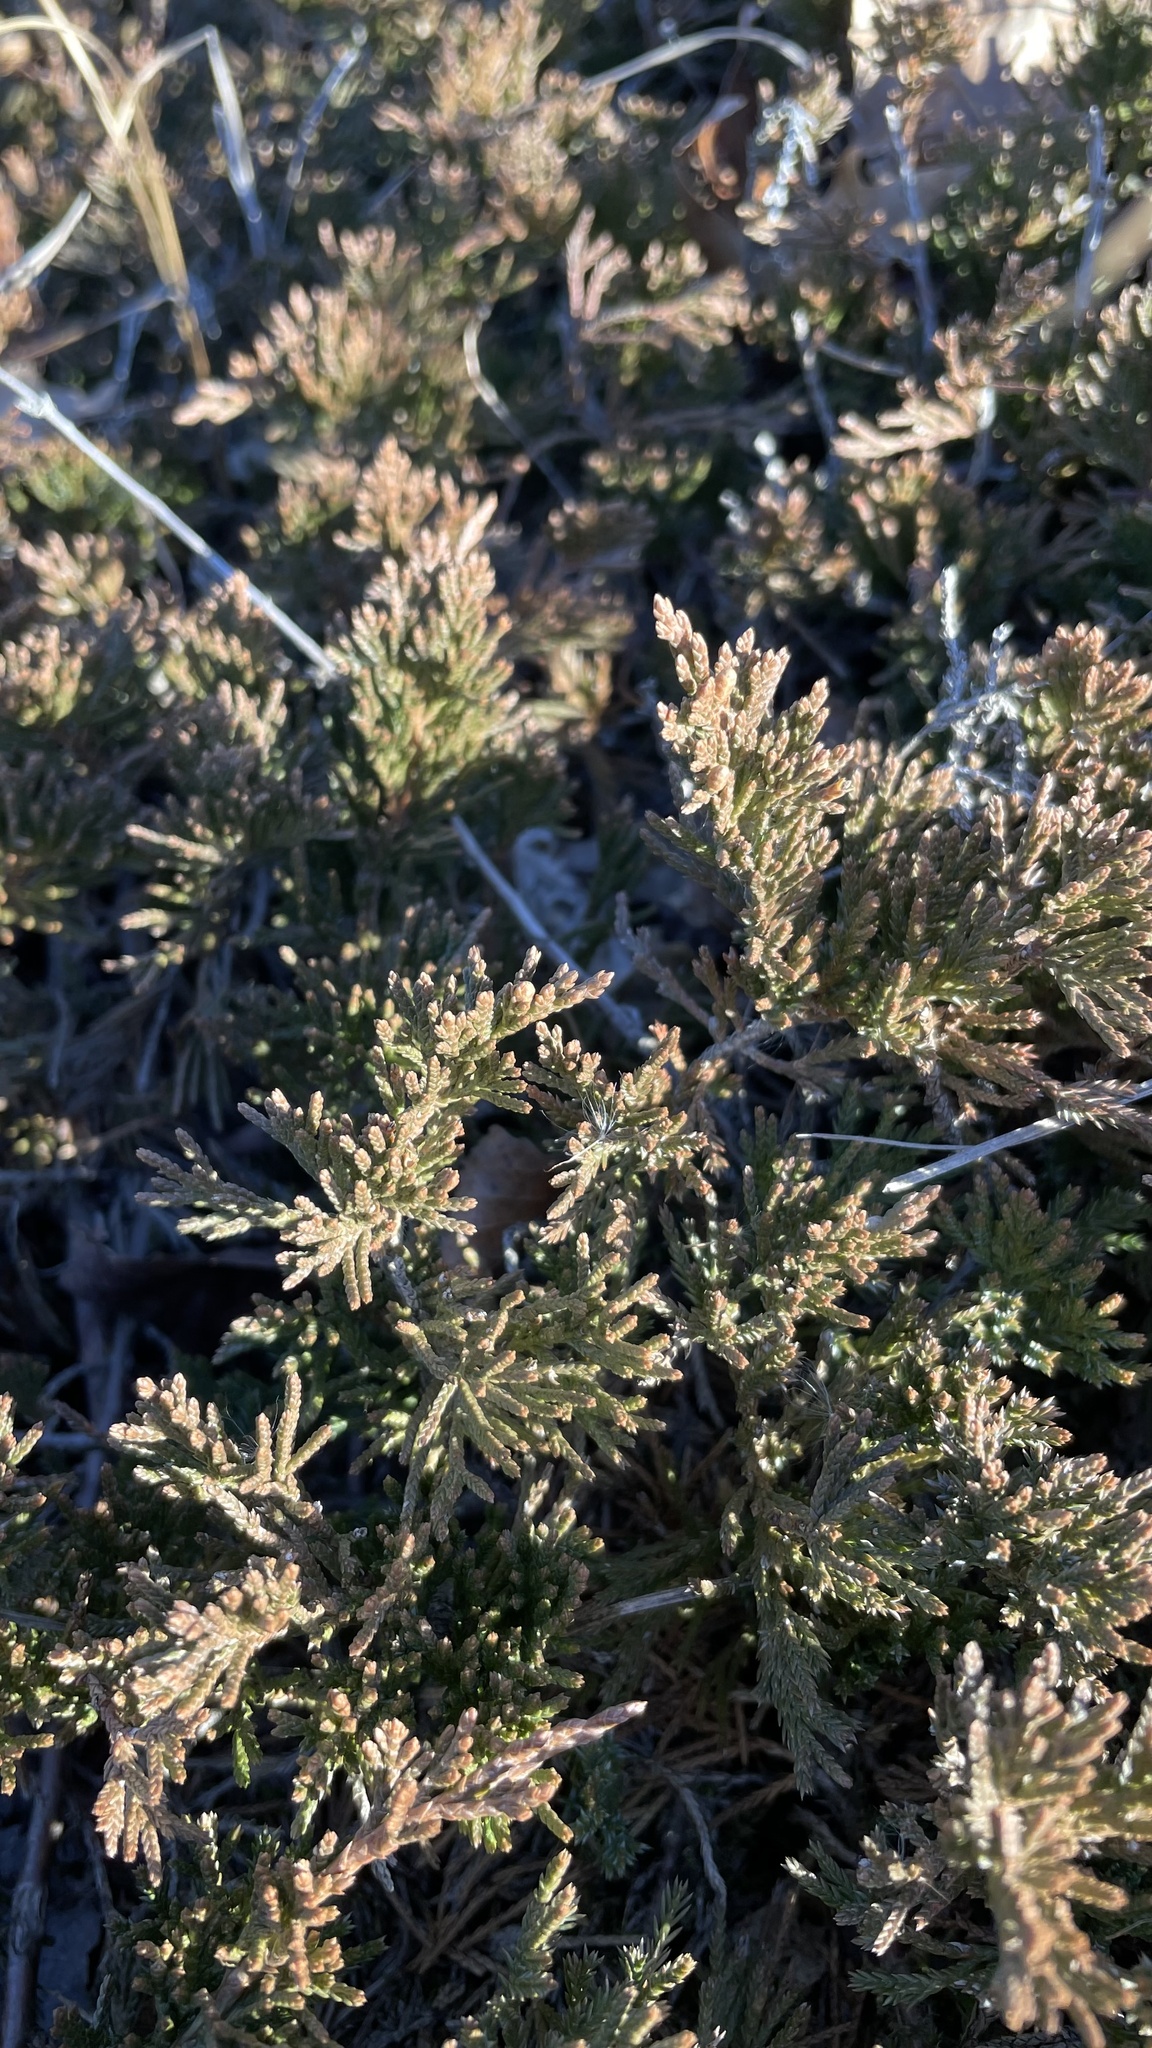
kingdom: Plantae
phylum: Tracheophyta
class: Pinopsida
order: Pinales
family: Cupressaceae
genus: Juniperus
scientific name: Juniperus horizontalis
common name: Creeping juniper
